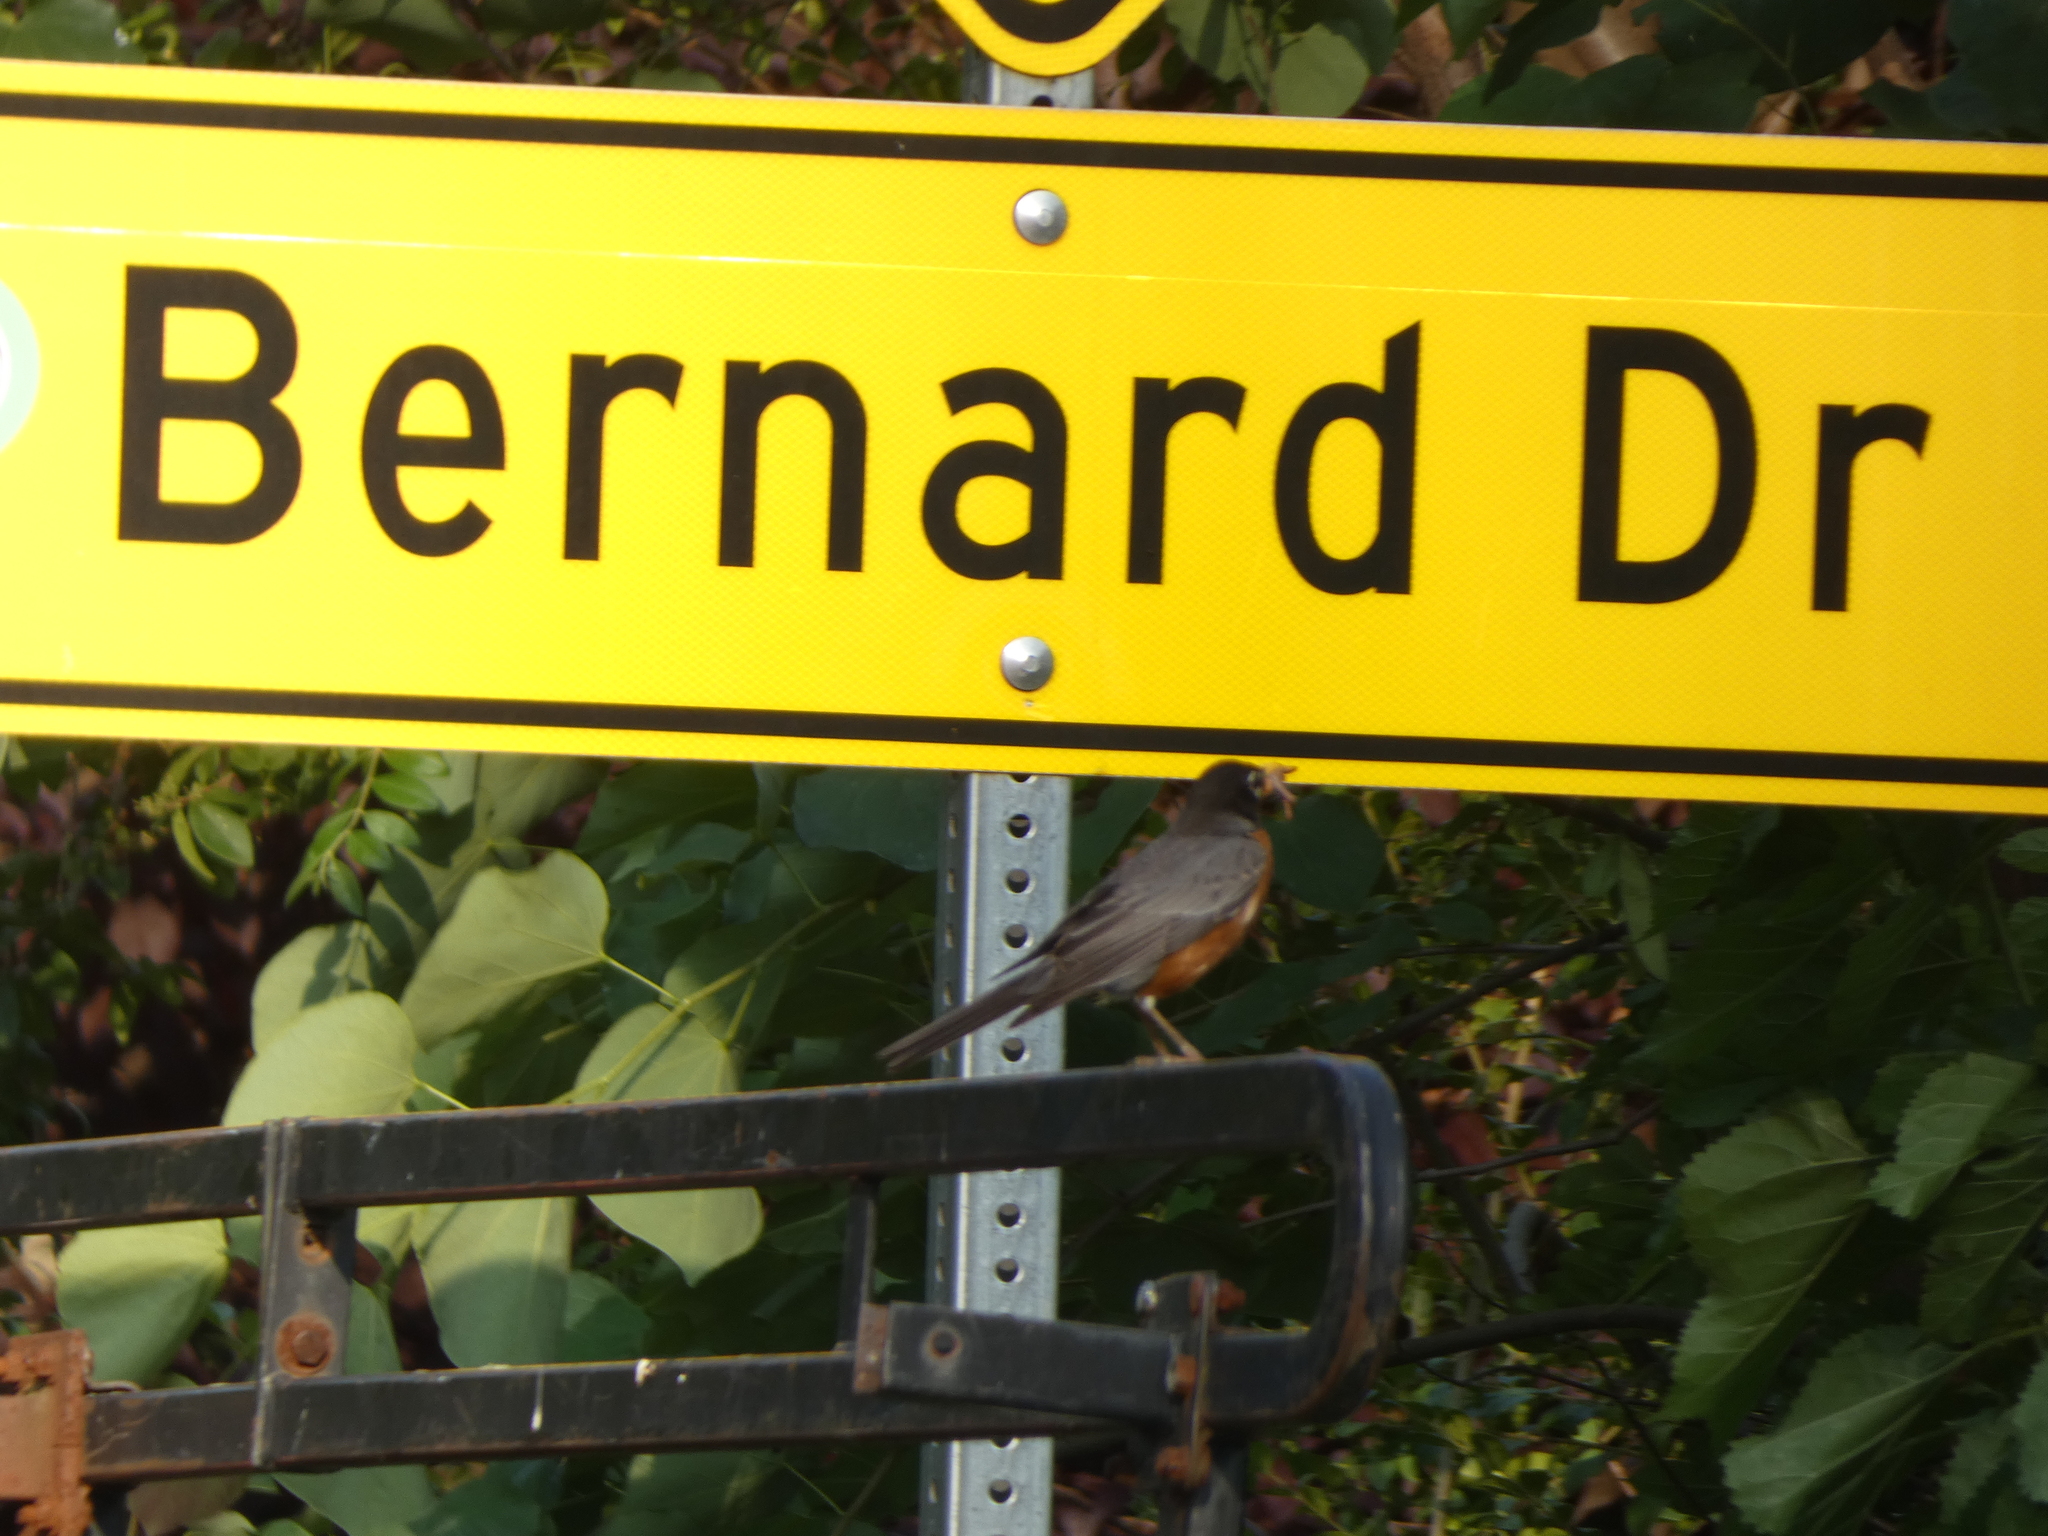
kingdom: Animalia
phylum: Chordata
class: Aves
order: Passeriformes
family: Turdidae
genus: Turdus
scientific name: Turdus migratorius
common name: American robin
